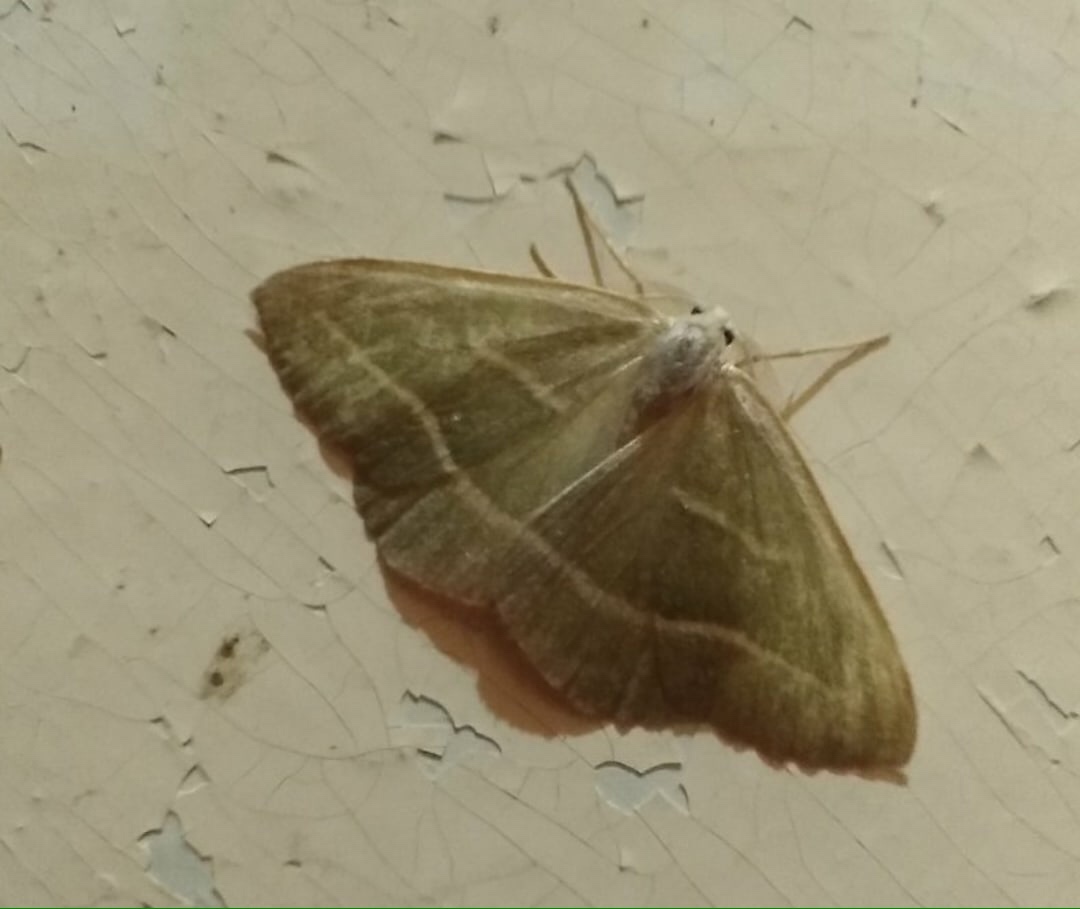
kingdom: Animalia
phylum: Arthropoda
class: Insecta
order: Lepidoptera
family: Geometridae
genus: Hylaea
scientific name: Hylaea fasciaria
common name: Barred red
